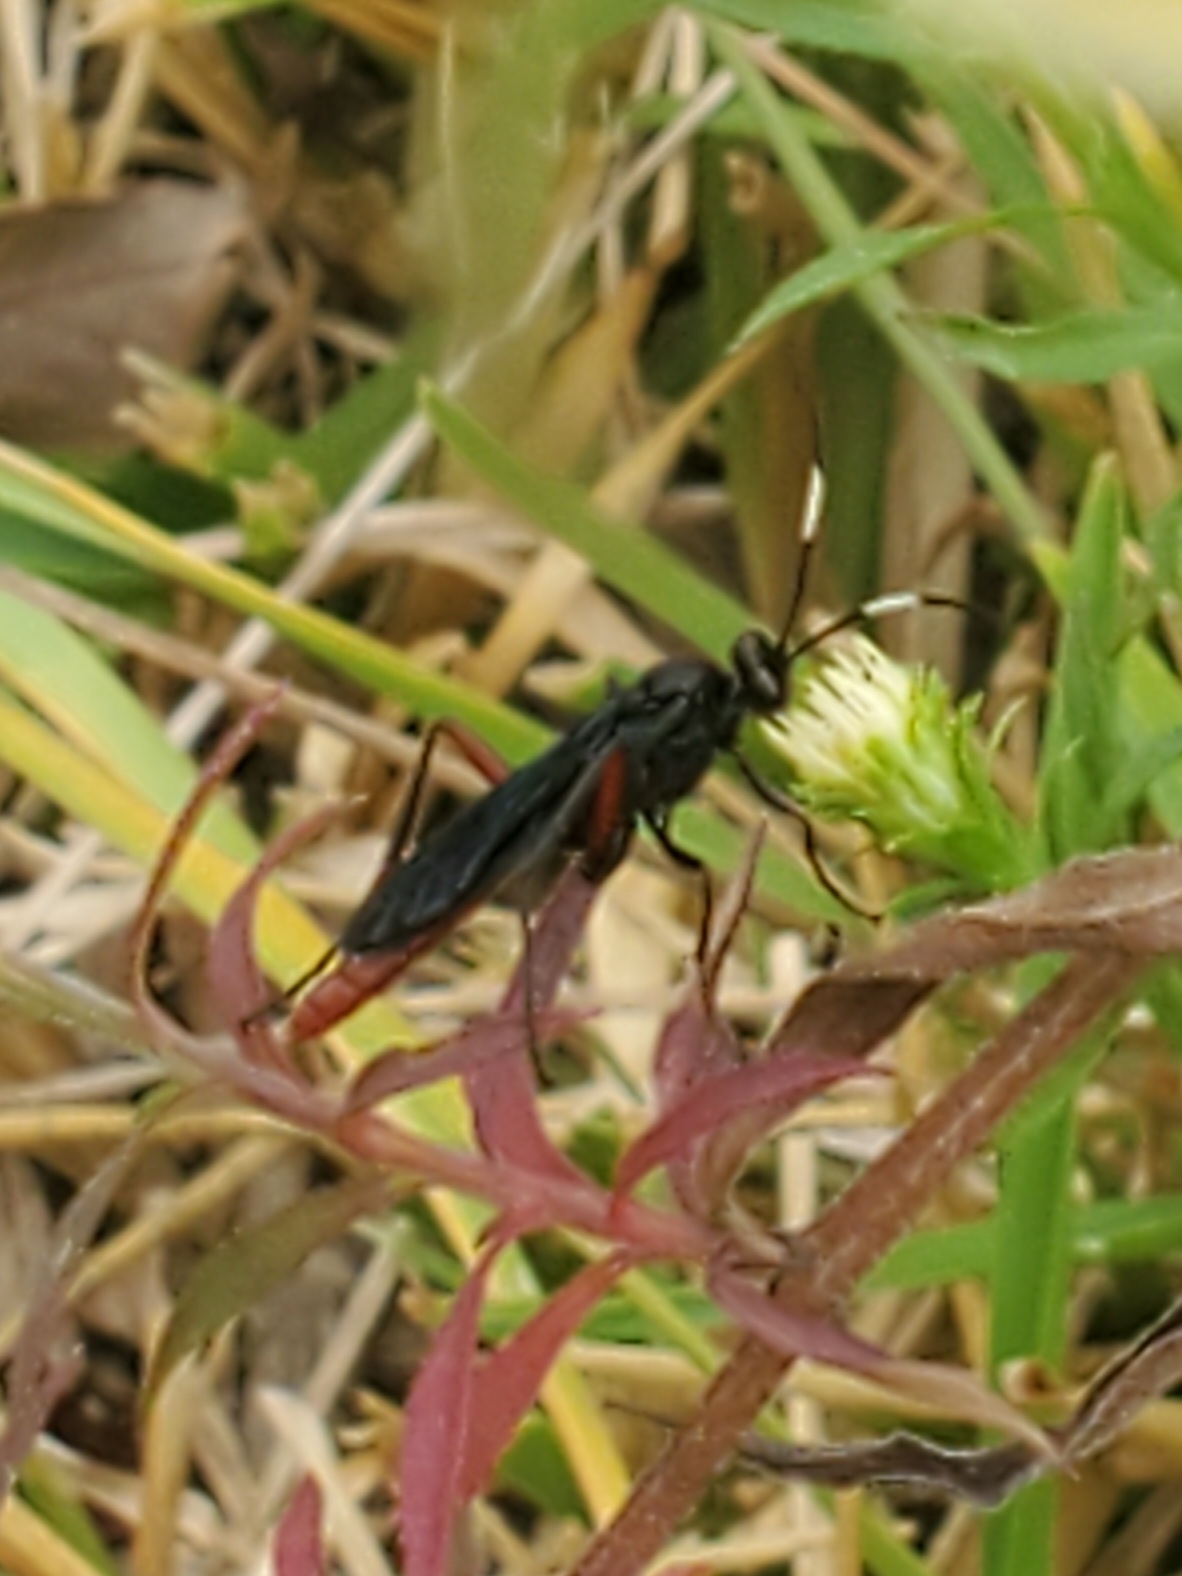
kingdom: Animalia
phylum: Arthropoda
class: Insecta
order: Hymenoptera
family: Ichneumonidae
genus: Limonethe
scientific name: Limonethe maurator
